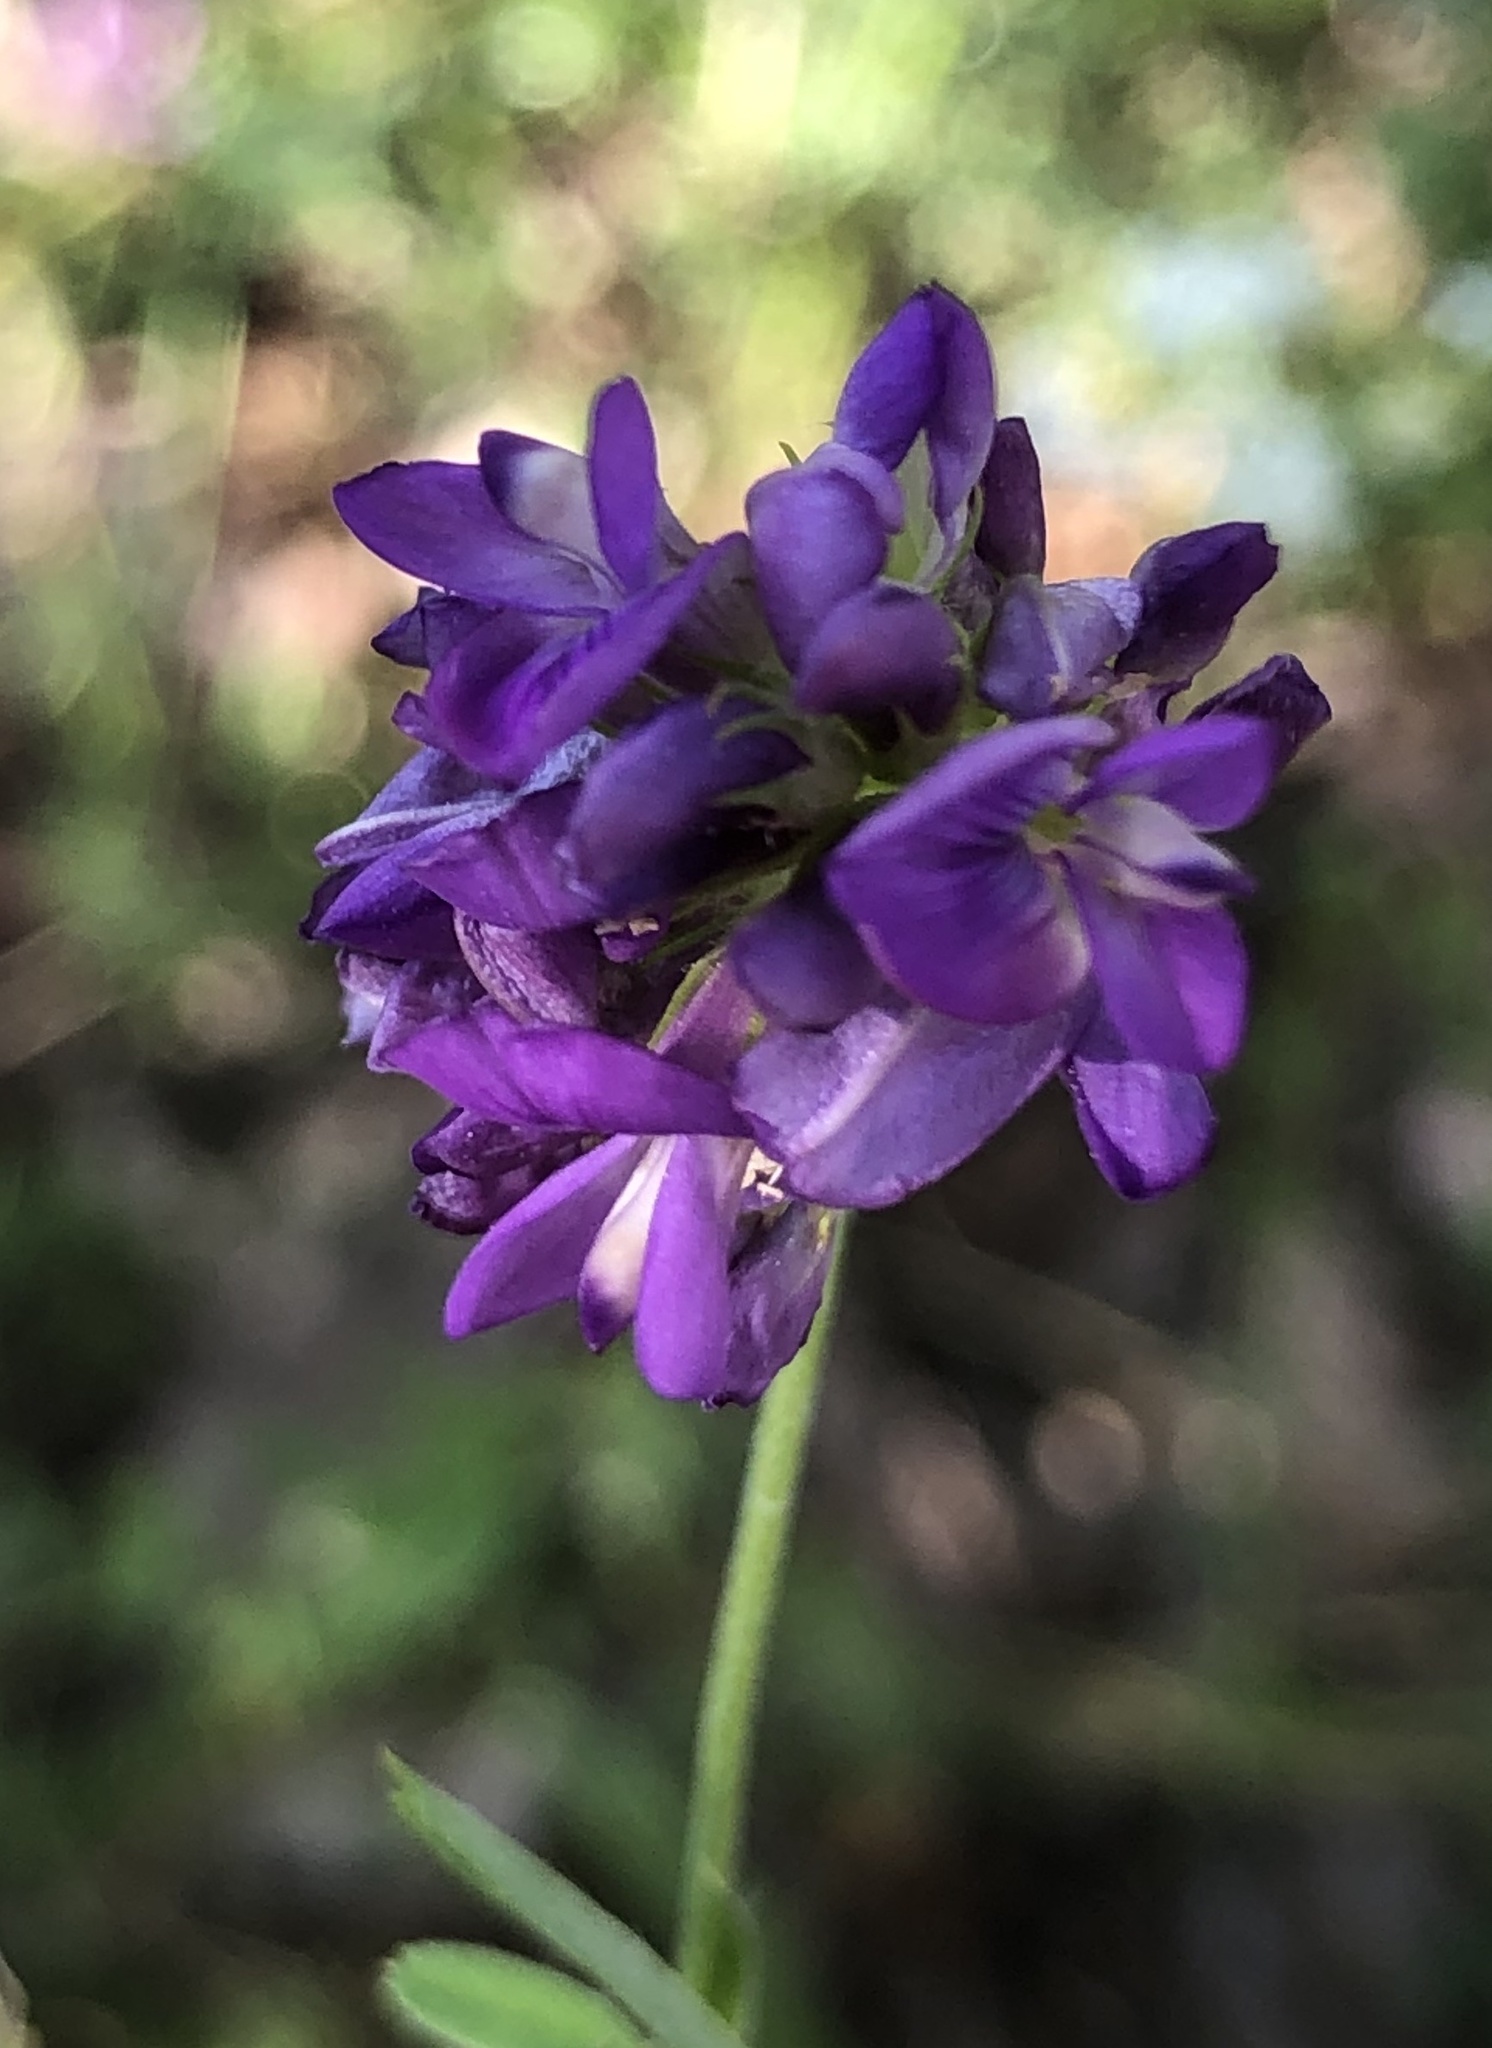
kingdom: Plantae
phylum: Tracheophyta
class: Magnoliopsida
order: Fabales
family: Fabaceae
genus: Medicago
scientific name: Medicago sativa
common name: Alfalfa
